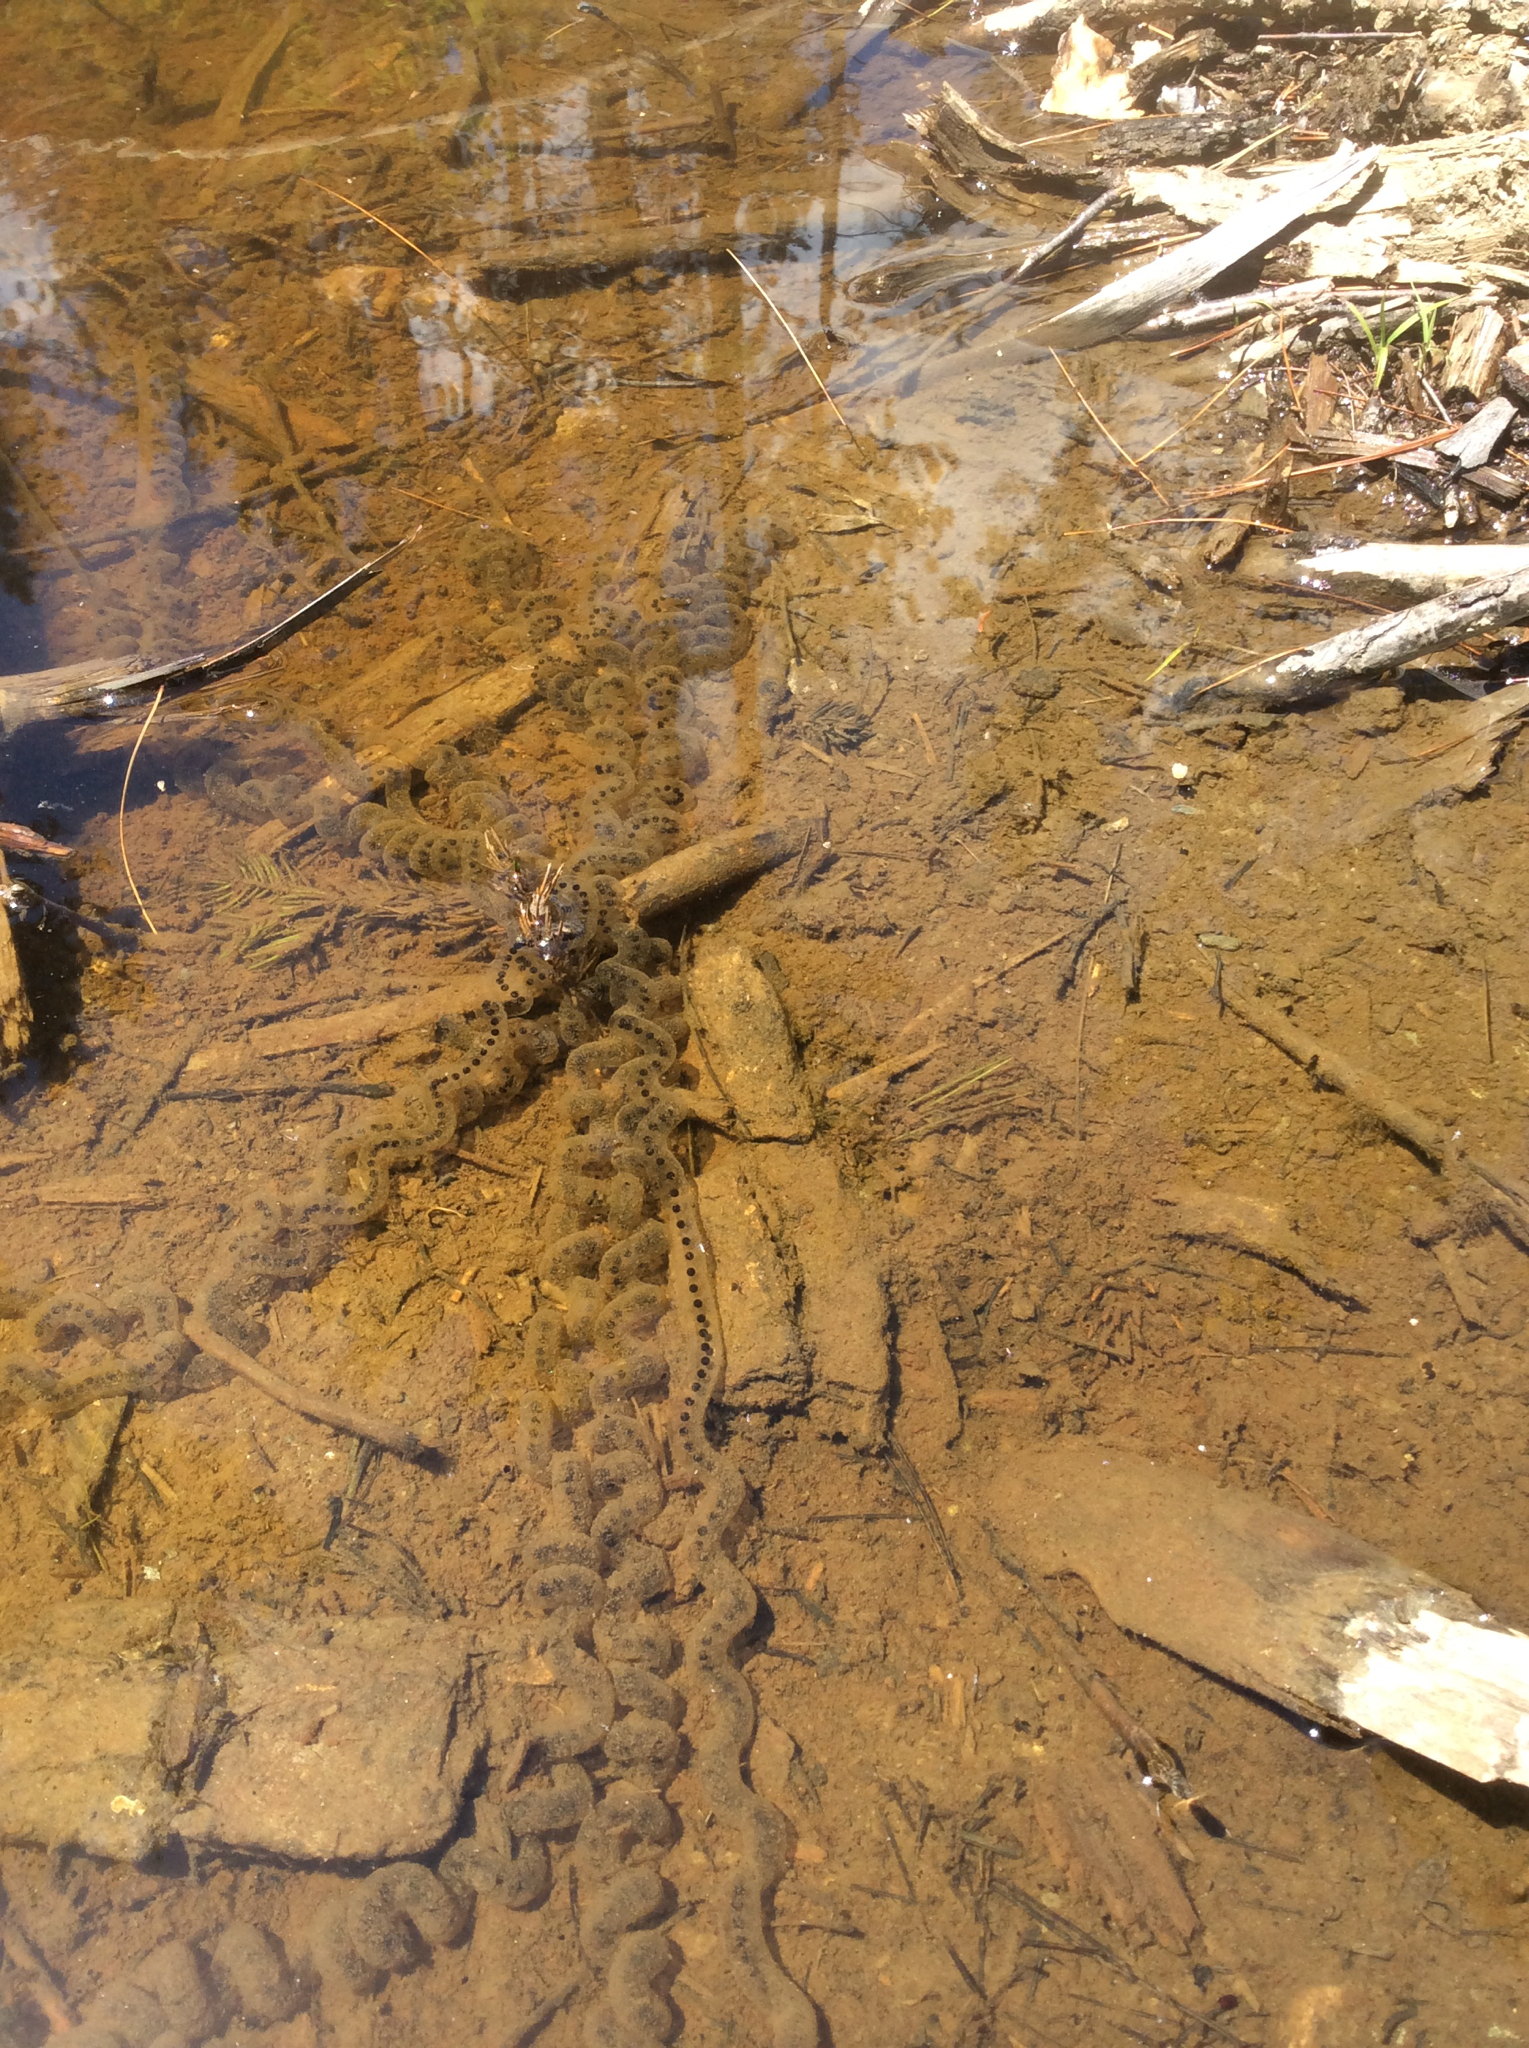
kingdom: Animalia
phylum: Chordata
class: Amphibia
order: Anura
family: Bufonidae
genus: Anaxyrus
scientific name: Anaxyrus americanus
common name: American toad
